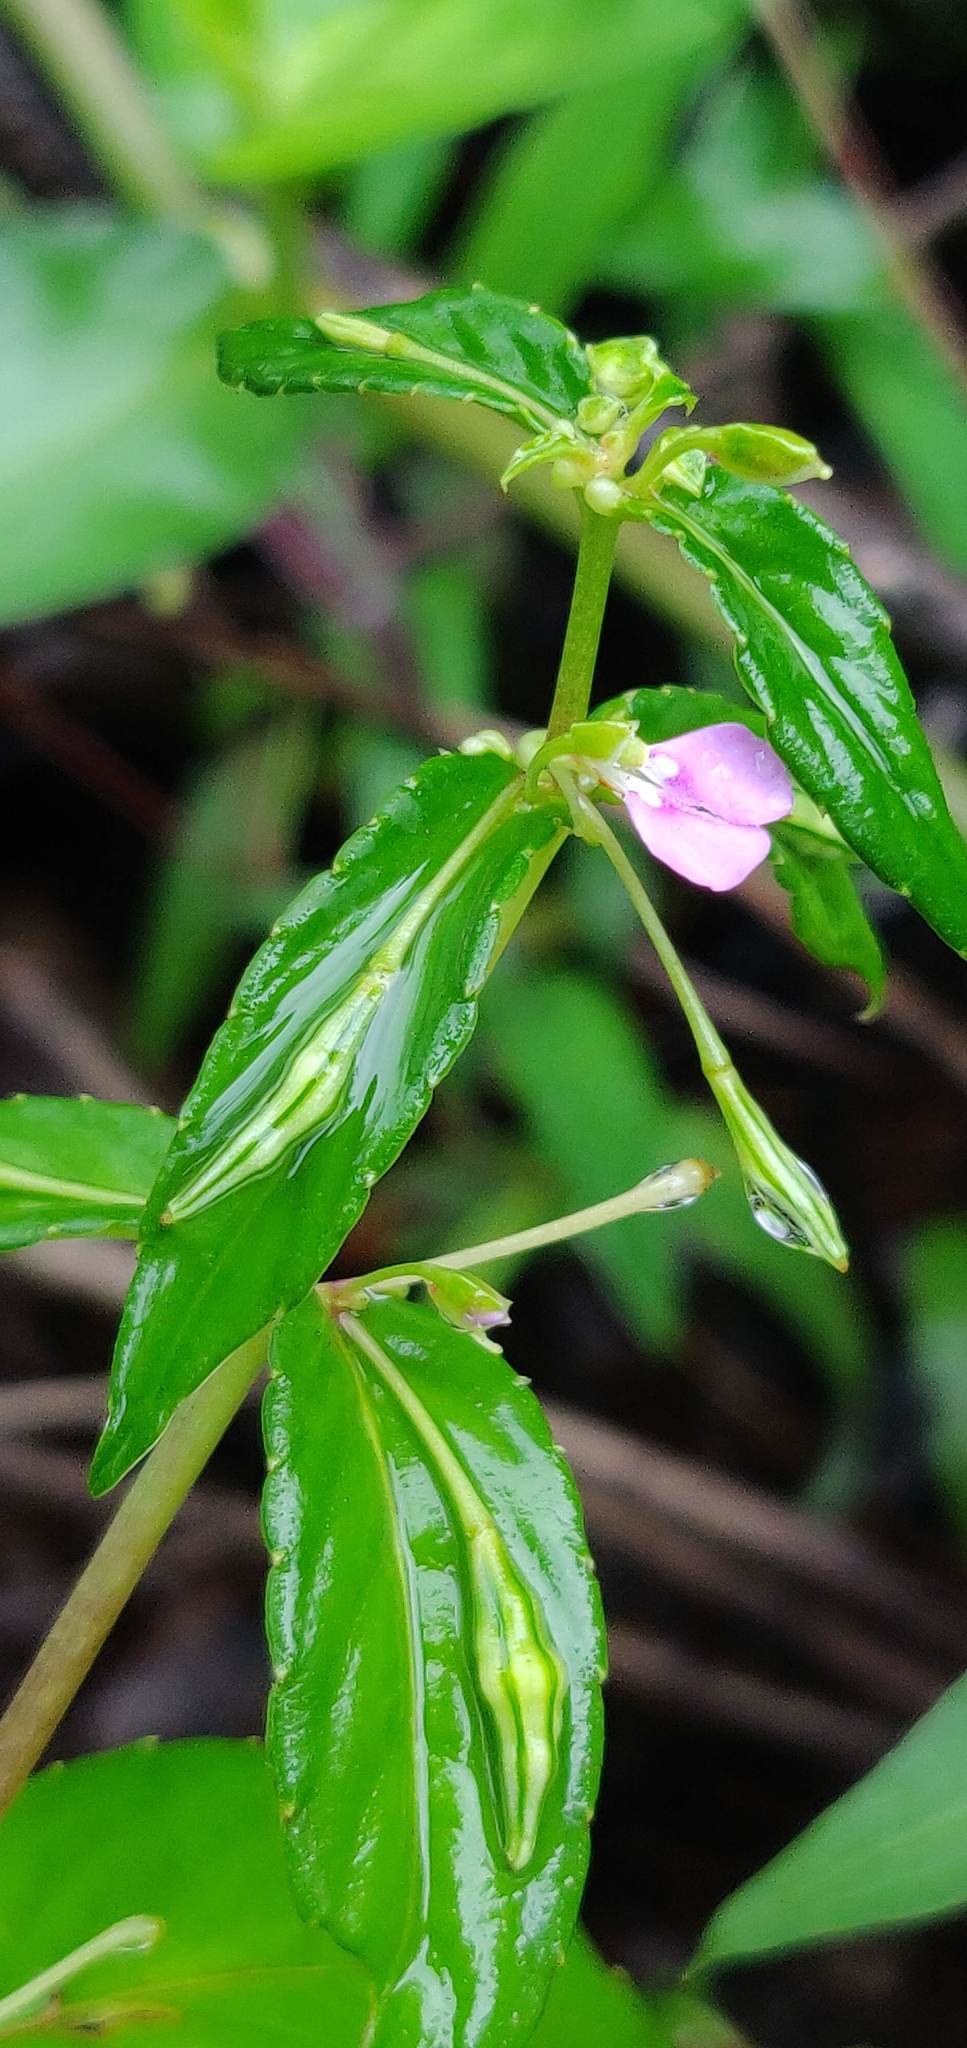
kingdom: Plantae
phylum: Tracheophyta
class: Magnoliopsida
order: Ericales
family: Balsaminaceae
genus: Impatiens
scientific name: Impatiens minor
